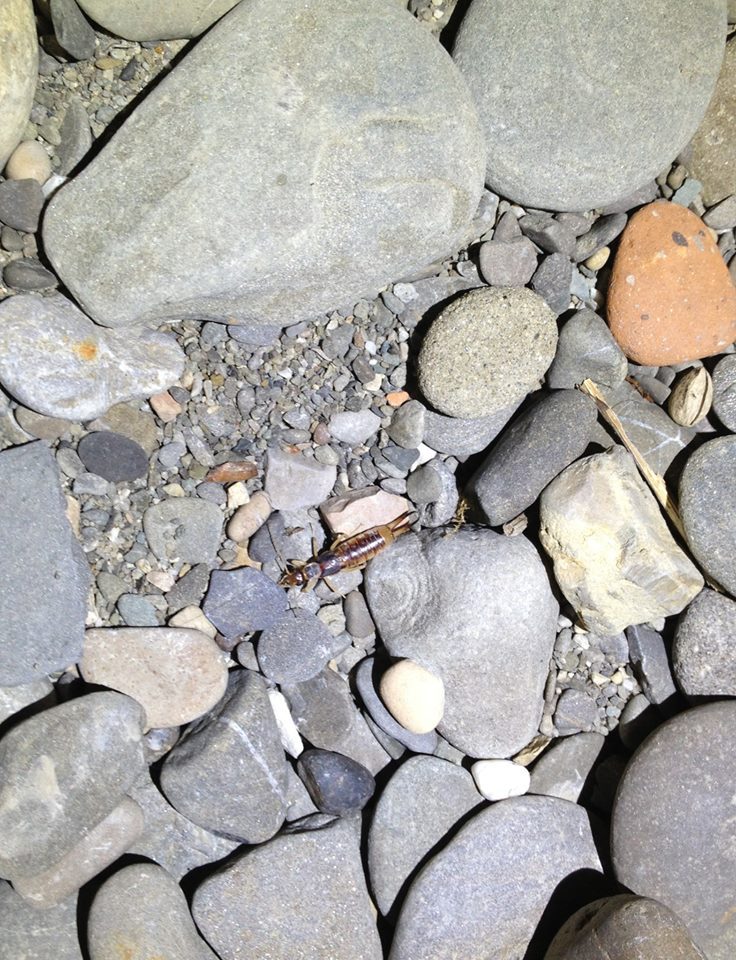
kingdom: Animalia
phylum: Arthropoda
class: Insecta
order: Dermaptera
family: Labiduridae
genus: Labidura
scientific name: Labidura riparia
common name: Striped earwig
